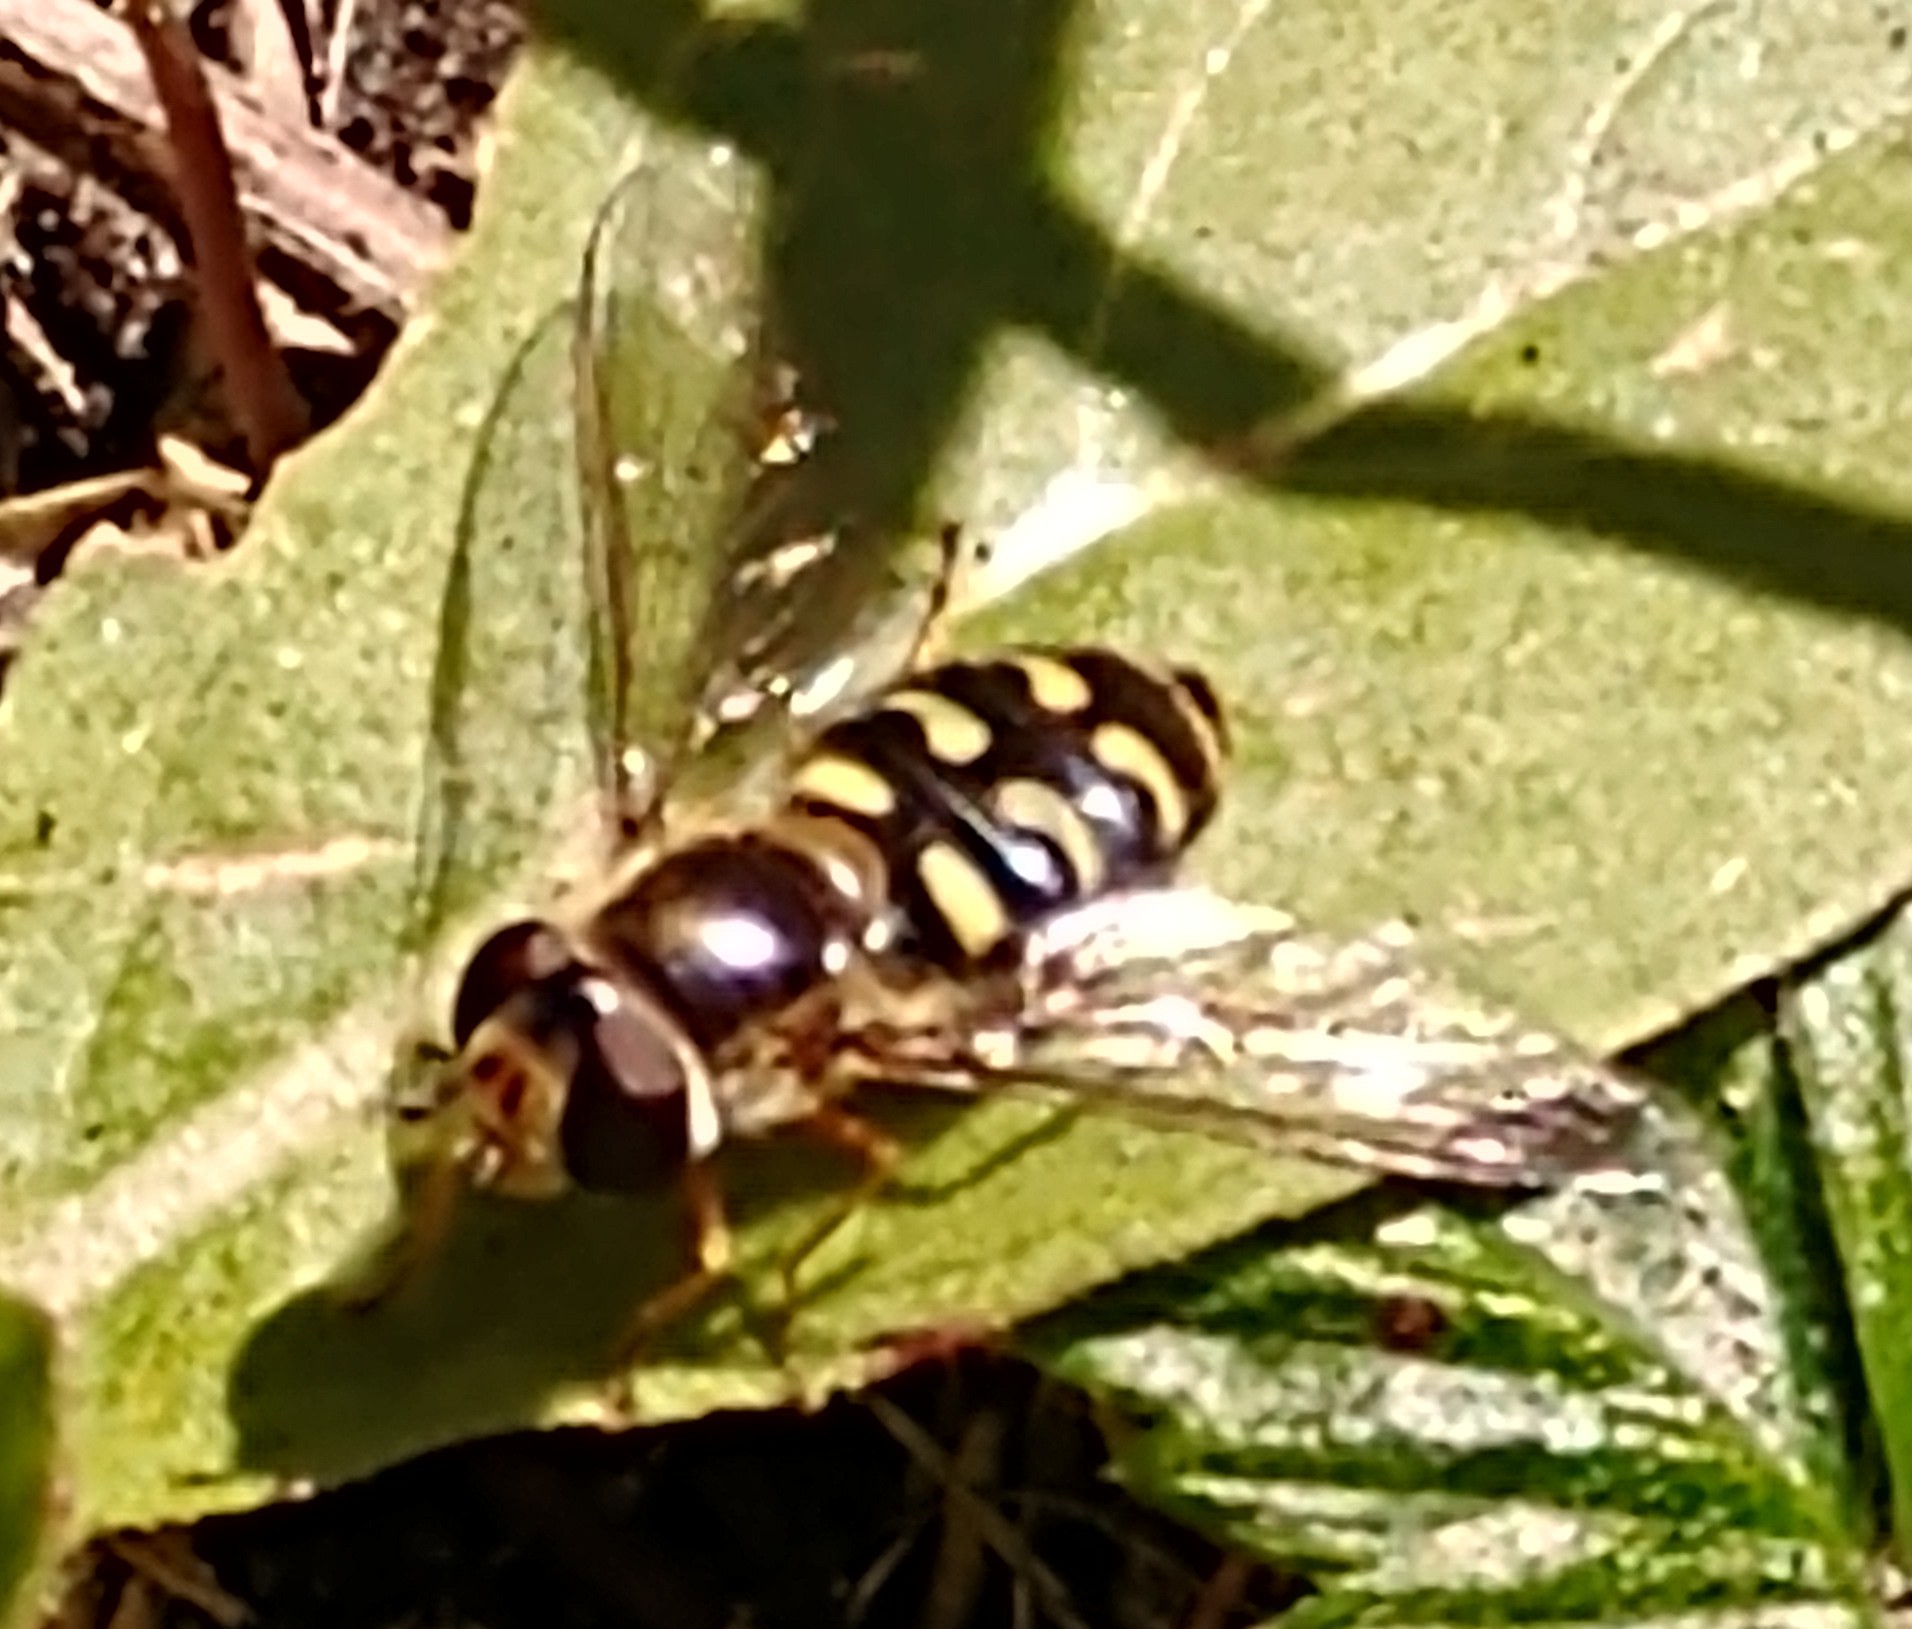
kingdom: Animalia
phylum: Arthropoda
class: Insecta
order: Diptera
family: Syrphidae
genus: Scaeva
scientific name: Scaeva selenitica
